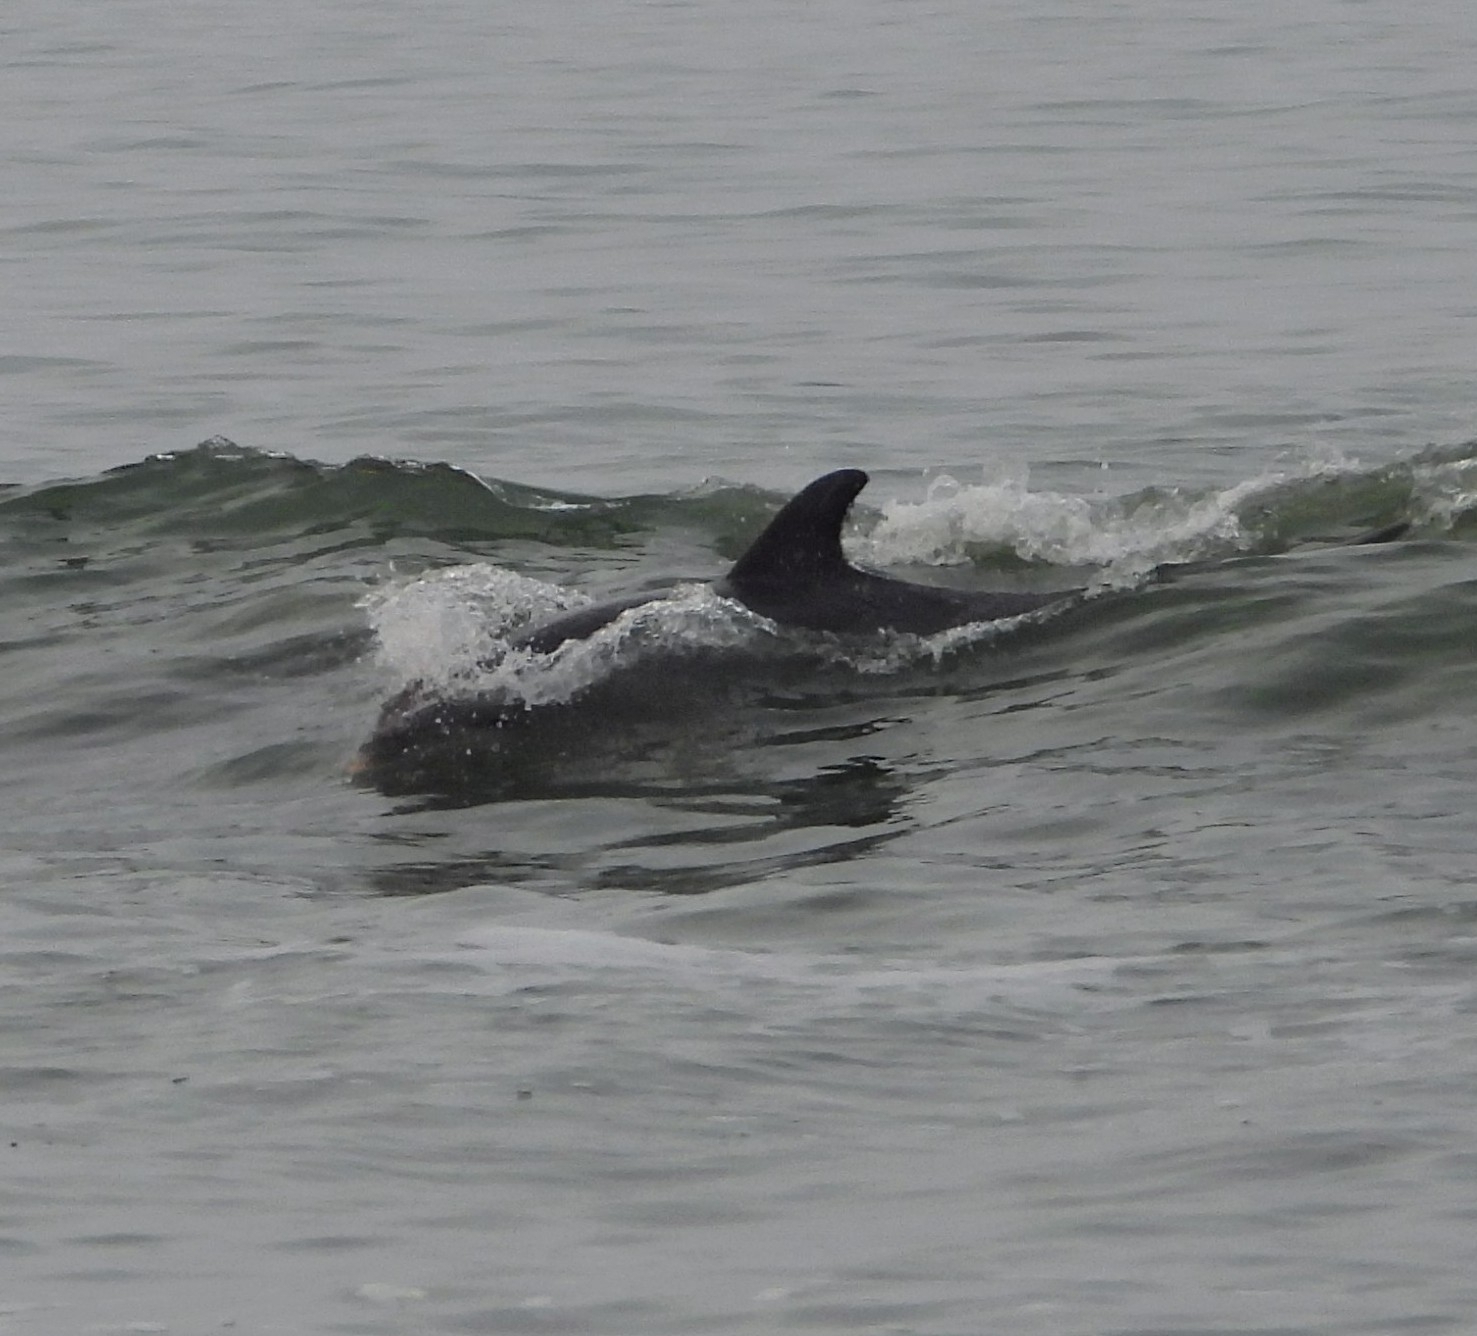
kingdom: Animalia
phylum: Chordata
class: Mammalia
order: Cetacea
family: Delphinidae
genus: Tursiops
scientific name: Tursiops truncatus
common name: Bottlenose dolphin
